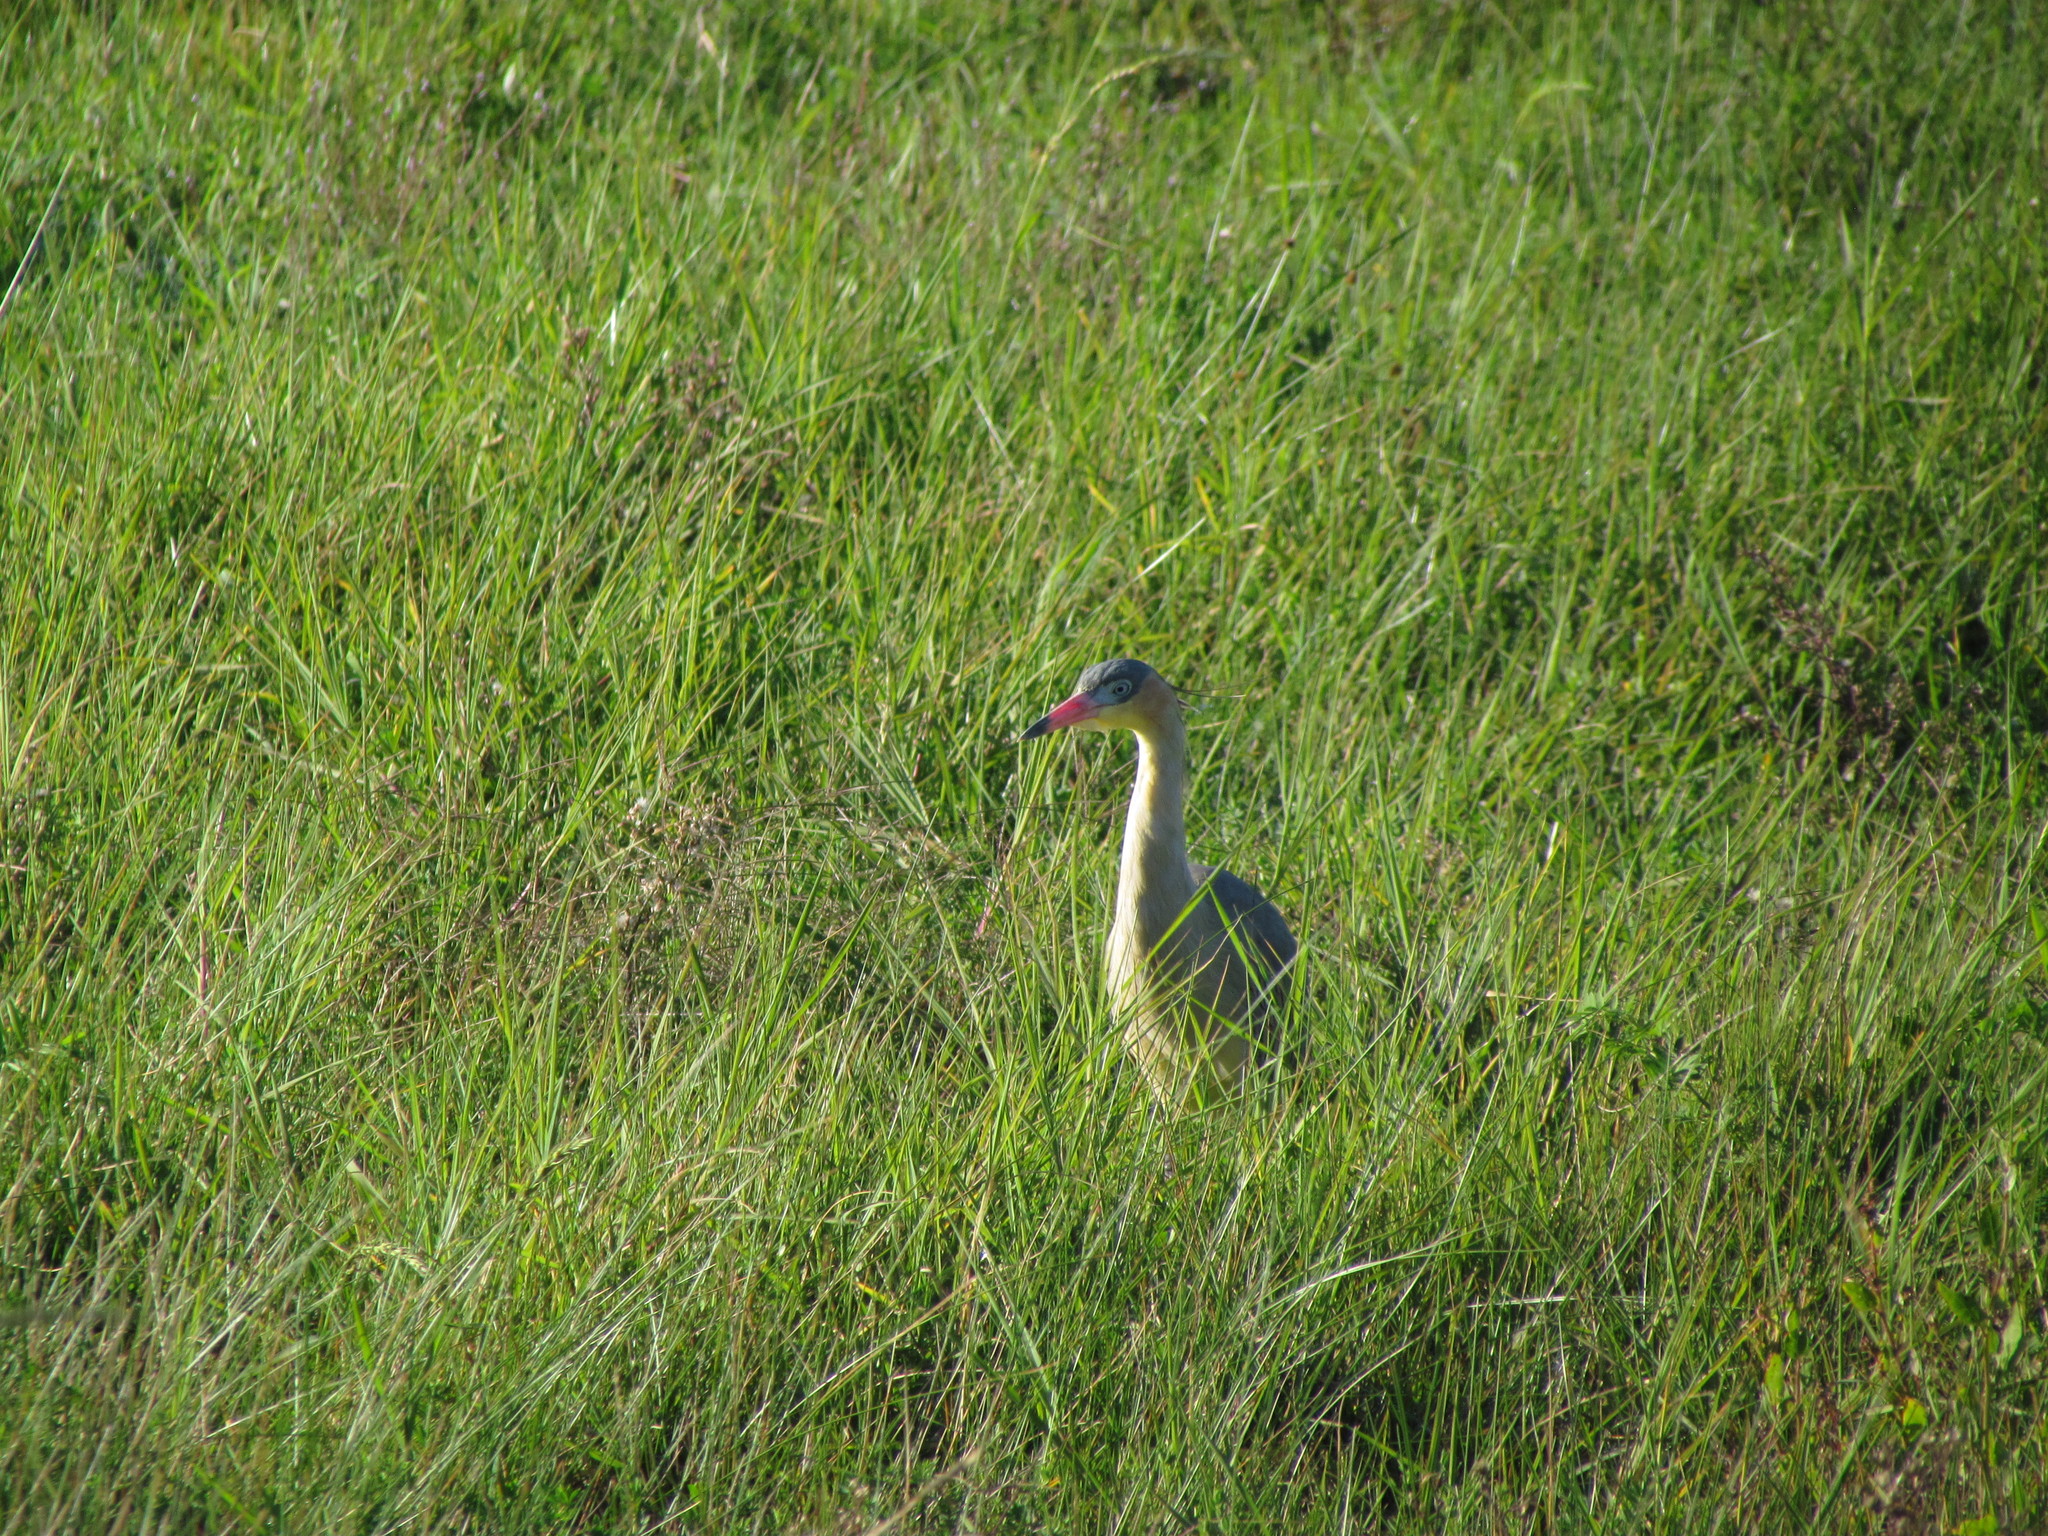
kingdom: Animalia
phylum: Chordata
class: Aves
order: Pelecaniformes
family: Ardeidae
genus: Syrigma
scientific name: Syrigma sibilatrix
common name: Whistling heron
